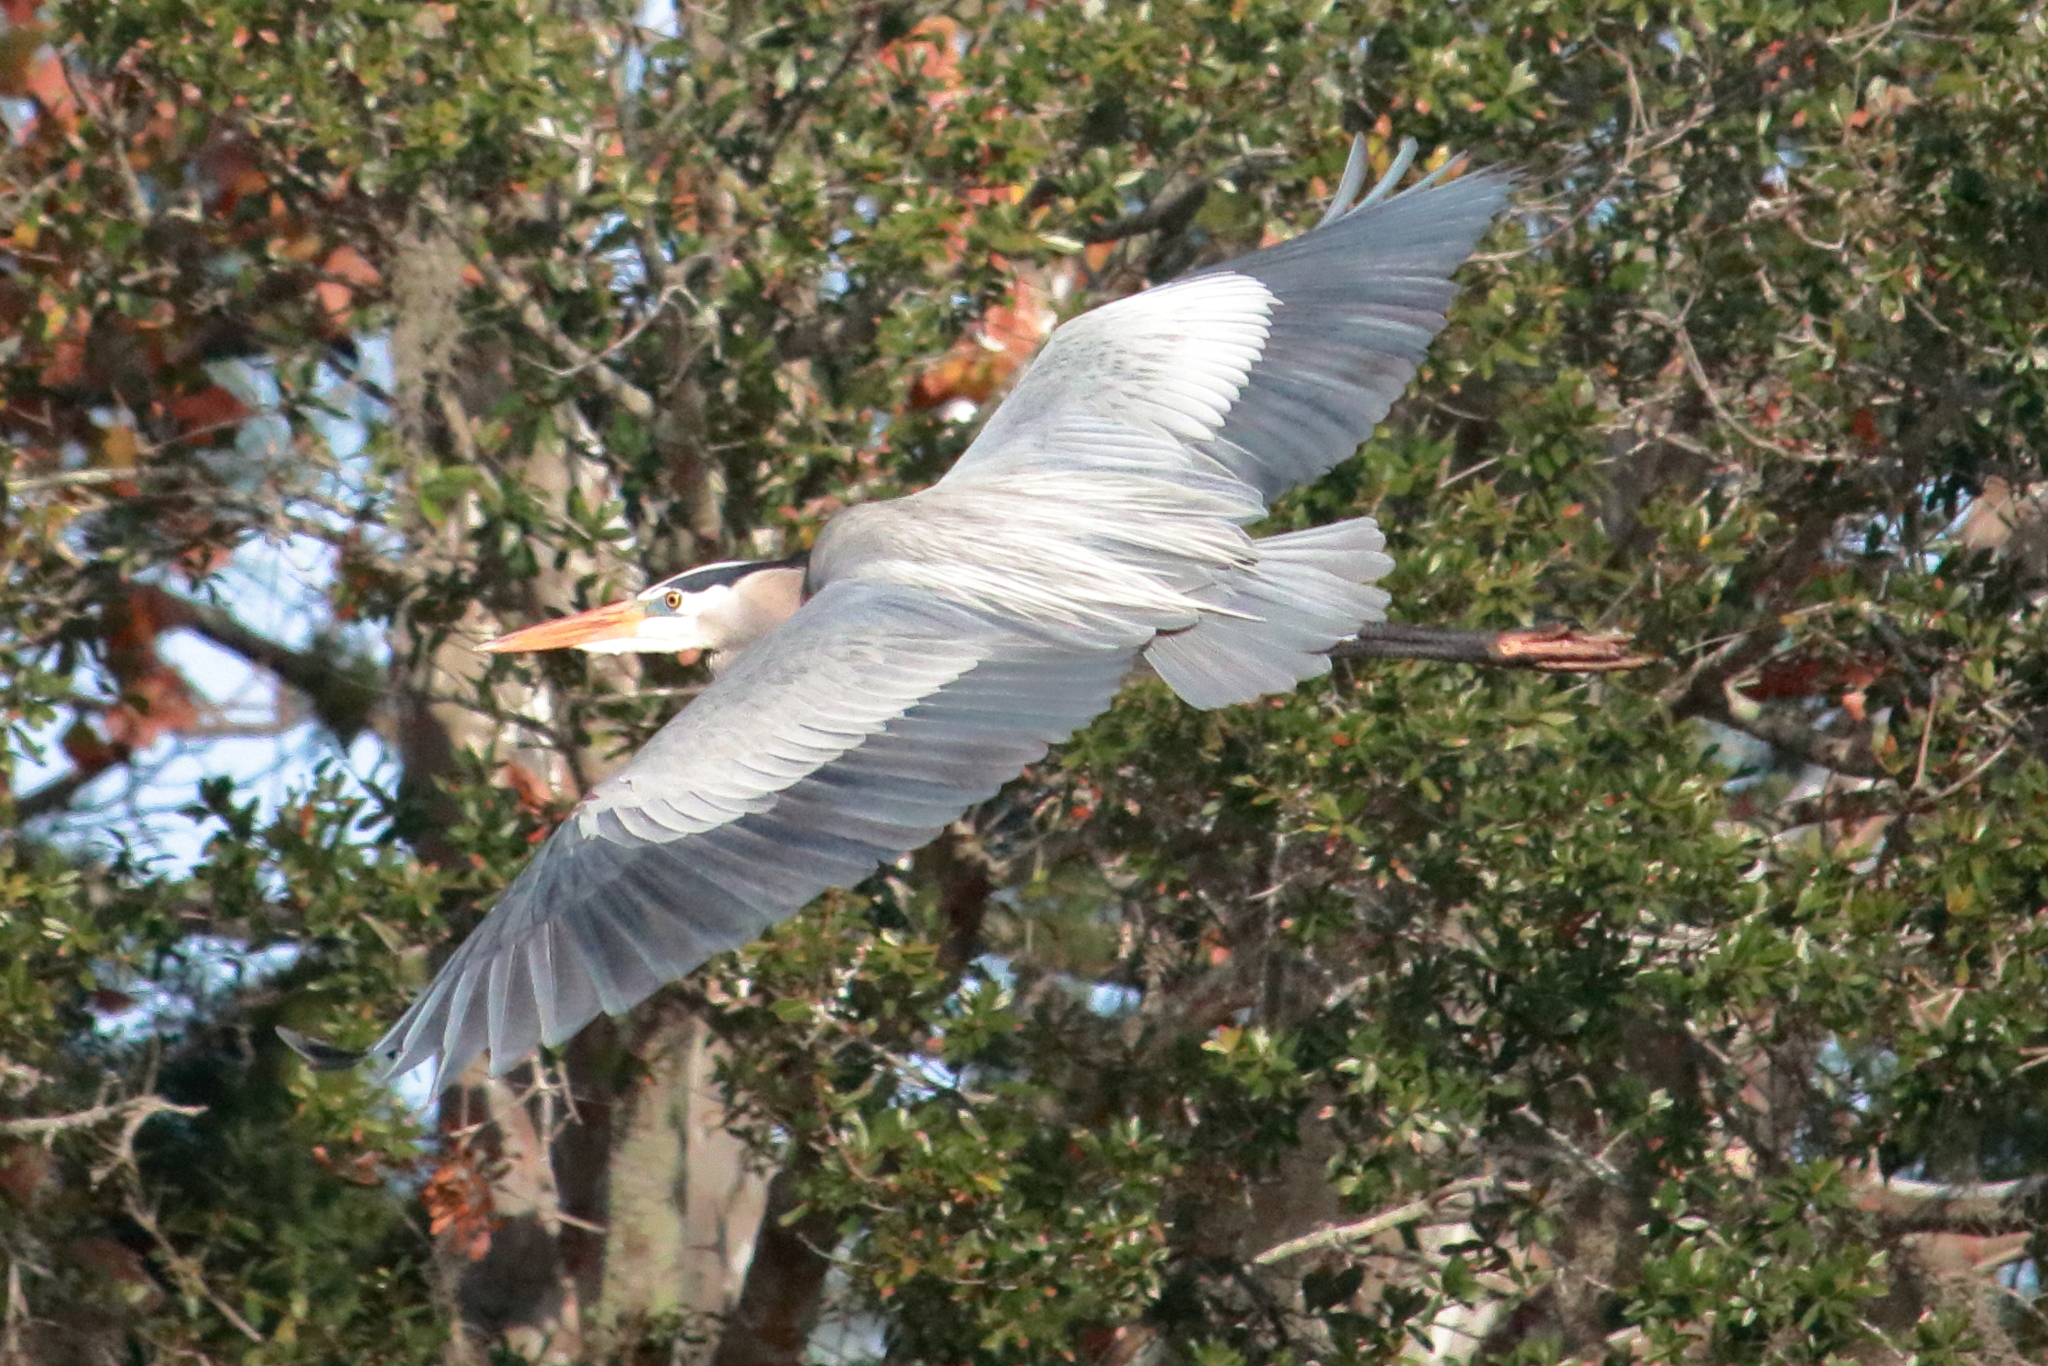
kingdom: Animalia
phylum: Chordata
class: Aves
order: Pelecaniformes
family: Ardeidae
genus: Ardea
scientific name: Ardea herodias
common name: Great blue heron
